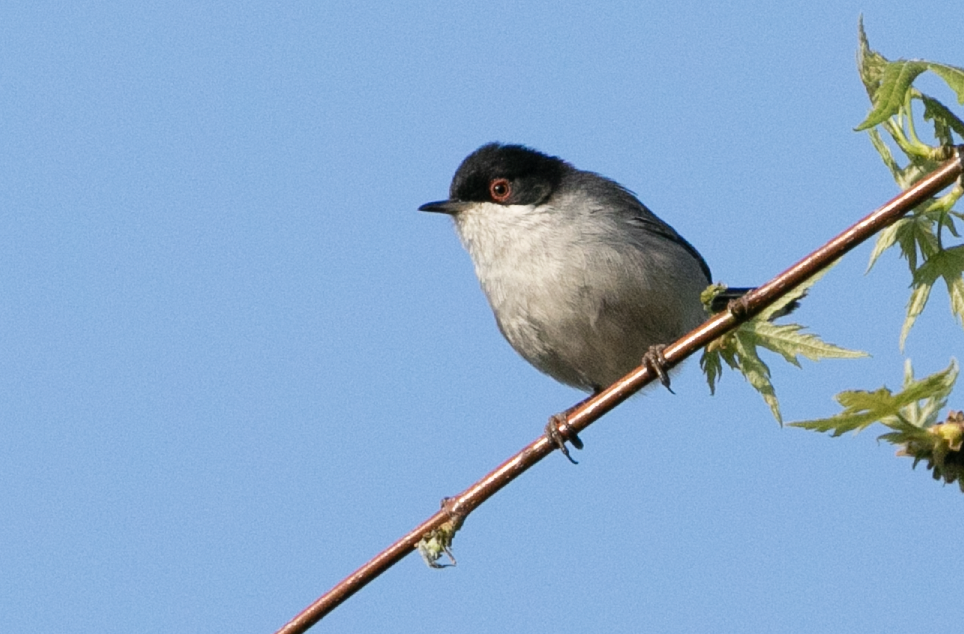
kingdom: Animalia
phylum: Chordata
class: Aves
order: Passeriformes
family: Sylviidae
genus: Curruca
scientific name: Curruca melanocephala
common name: Sardinian warbler
